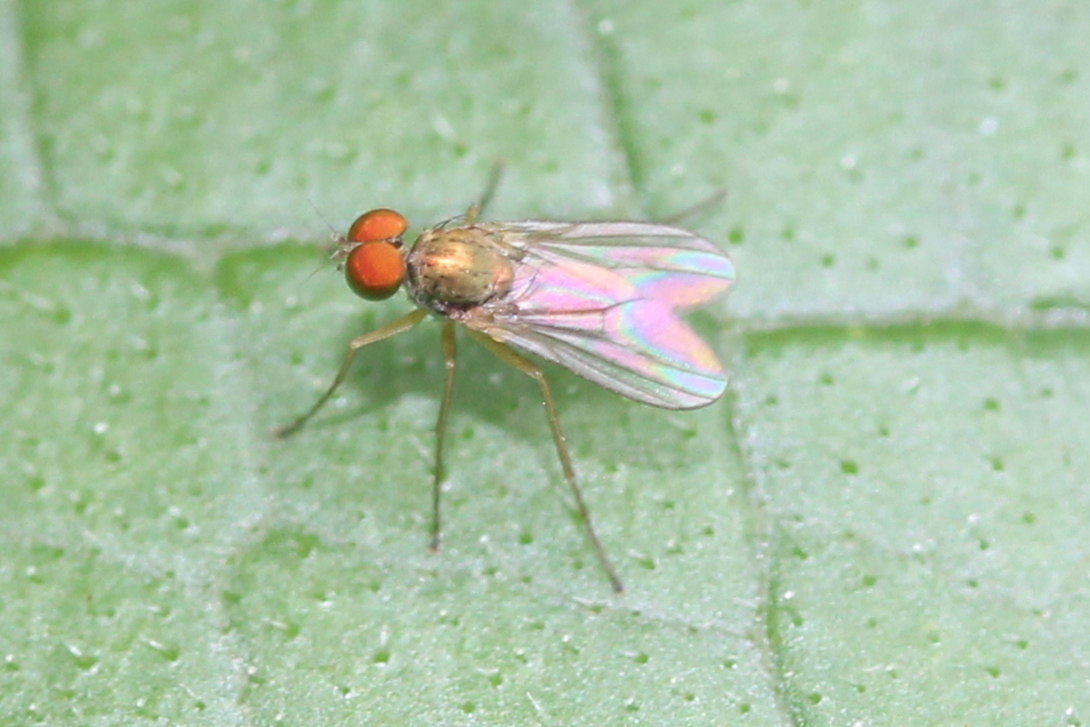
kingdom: Animalia
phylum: Arthropoda
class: Insecta
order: Diptera
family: Dolichopodidae
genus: Chrysotus
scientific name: Chrysotus
